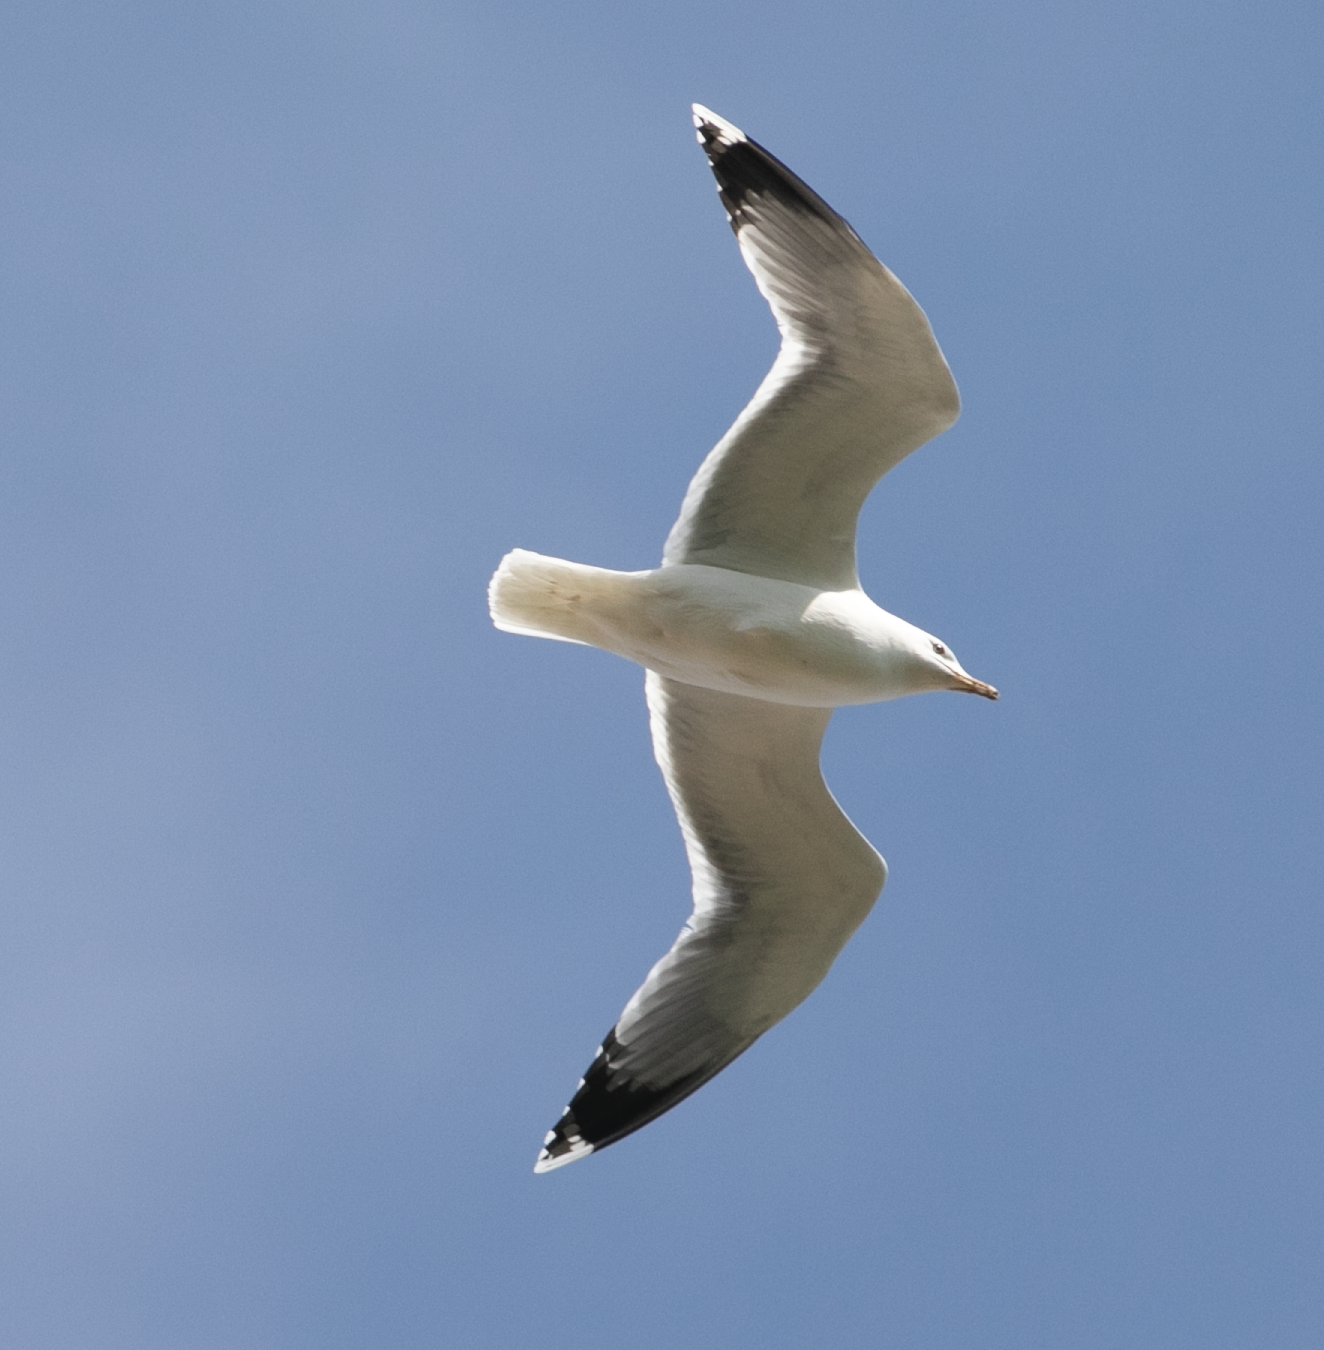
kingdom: Animalia
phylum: Chordata
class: Aves
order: Charadriiformes
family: Laridae
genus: Larus
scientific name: Larus michahellis
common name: Yellow-legged gull
